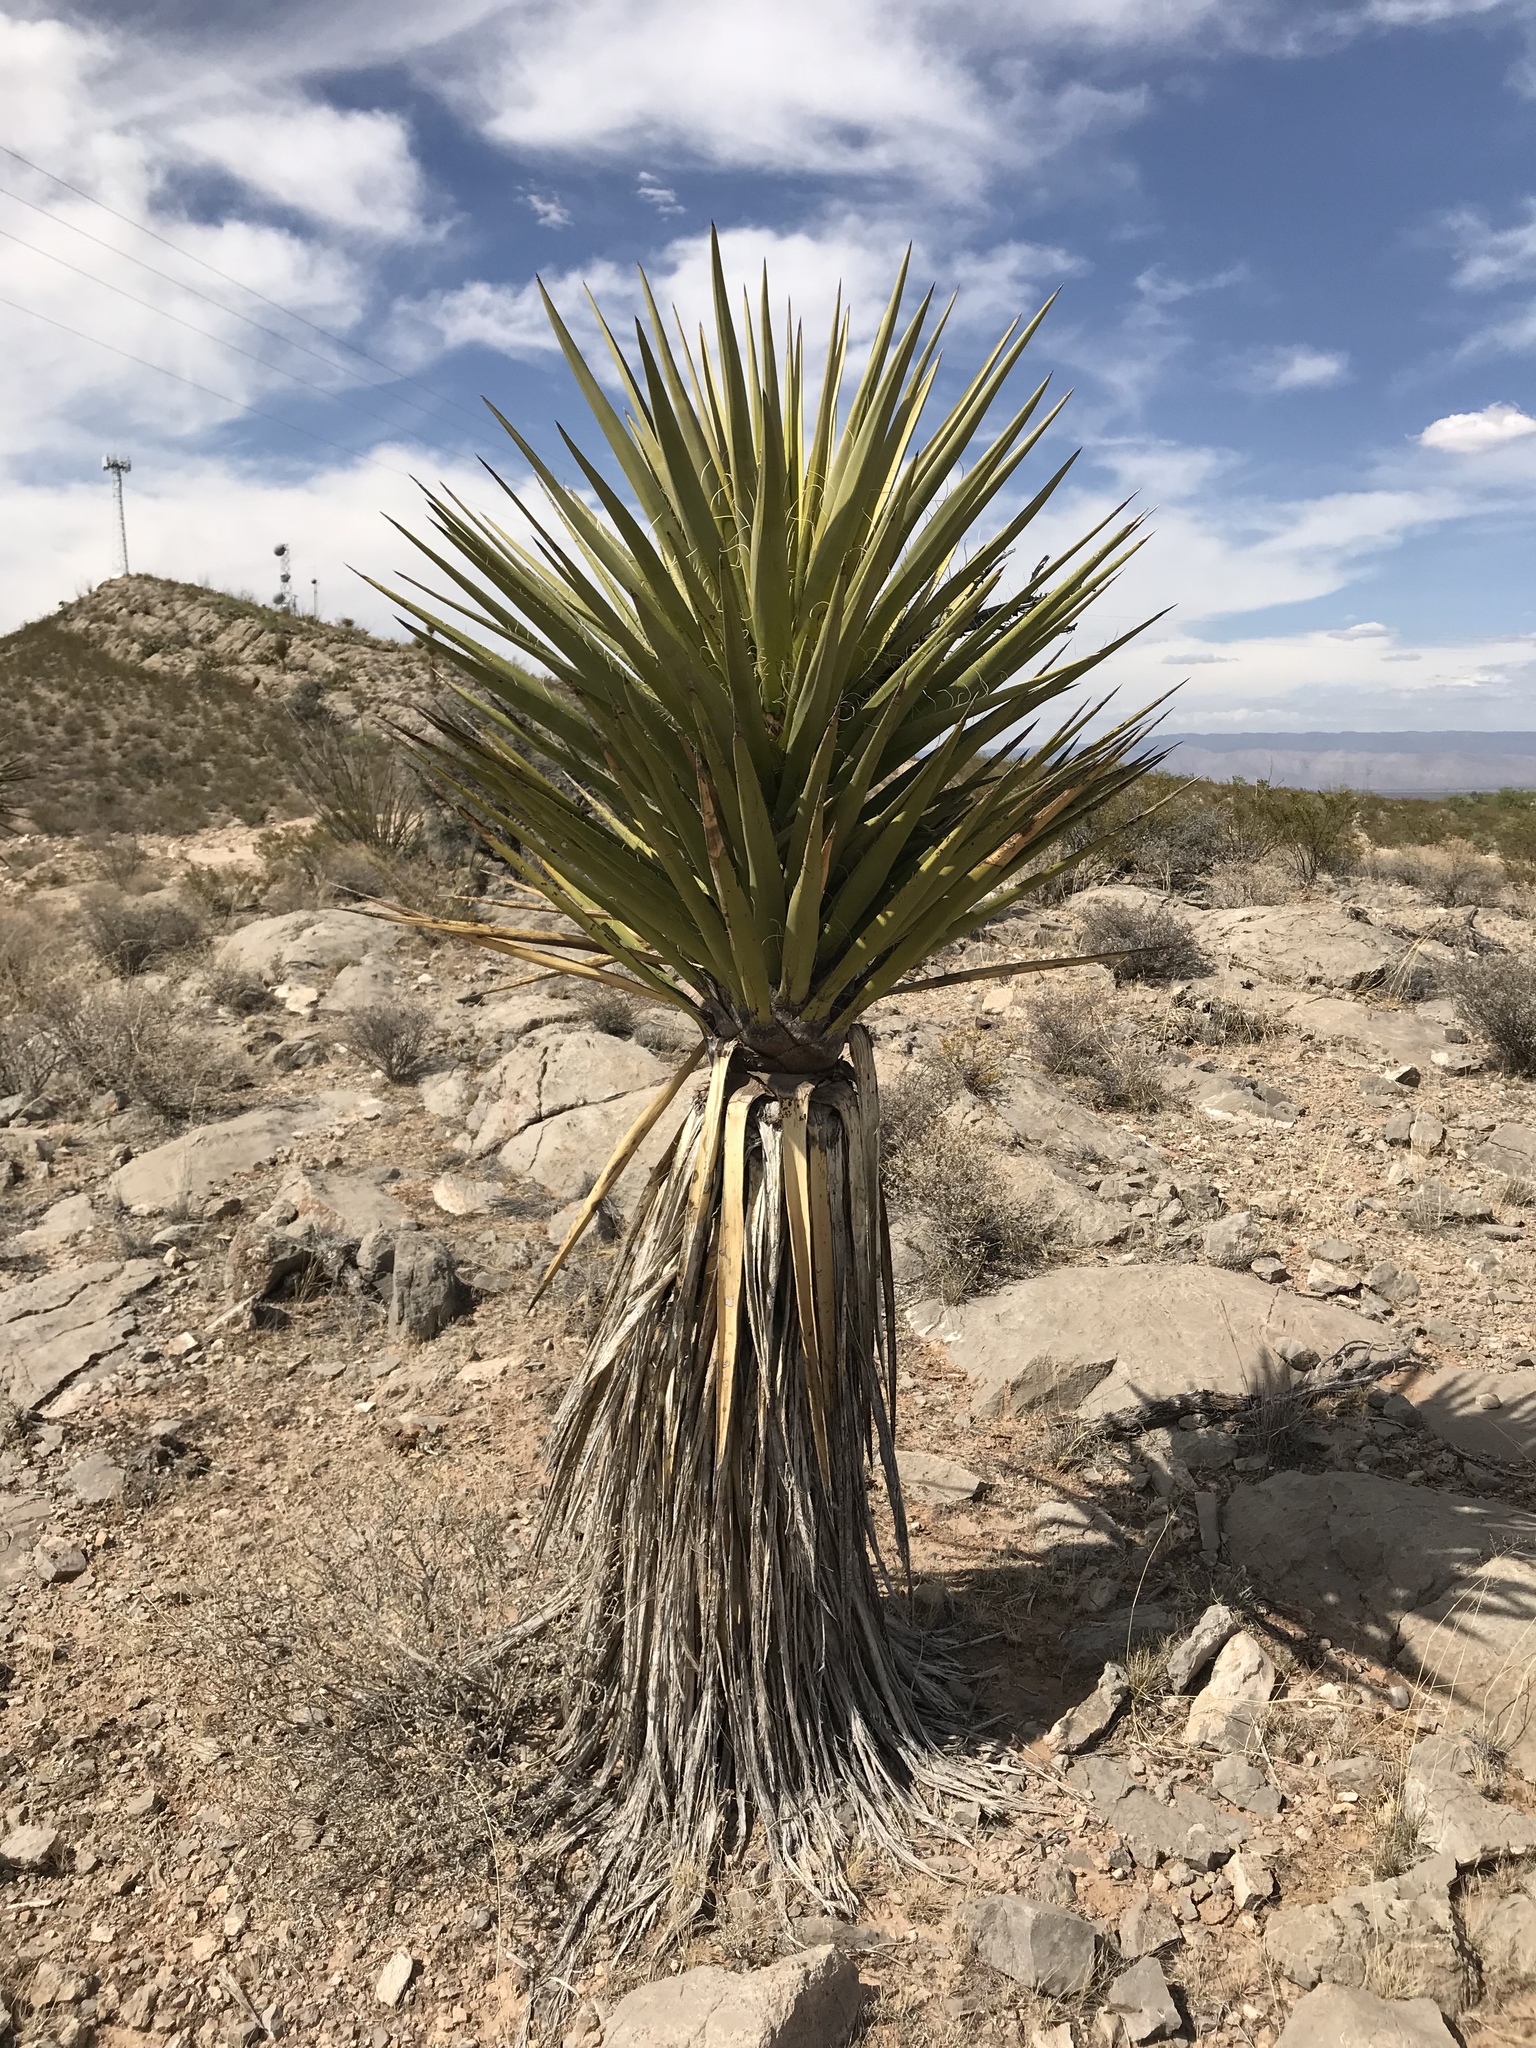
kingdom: Plantae
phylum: Tracheophyta
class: Liliopsida
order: Asparagales
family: Asparagaceae
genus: Yucca
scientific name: Yucca treculiana
